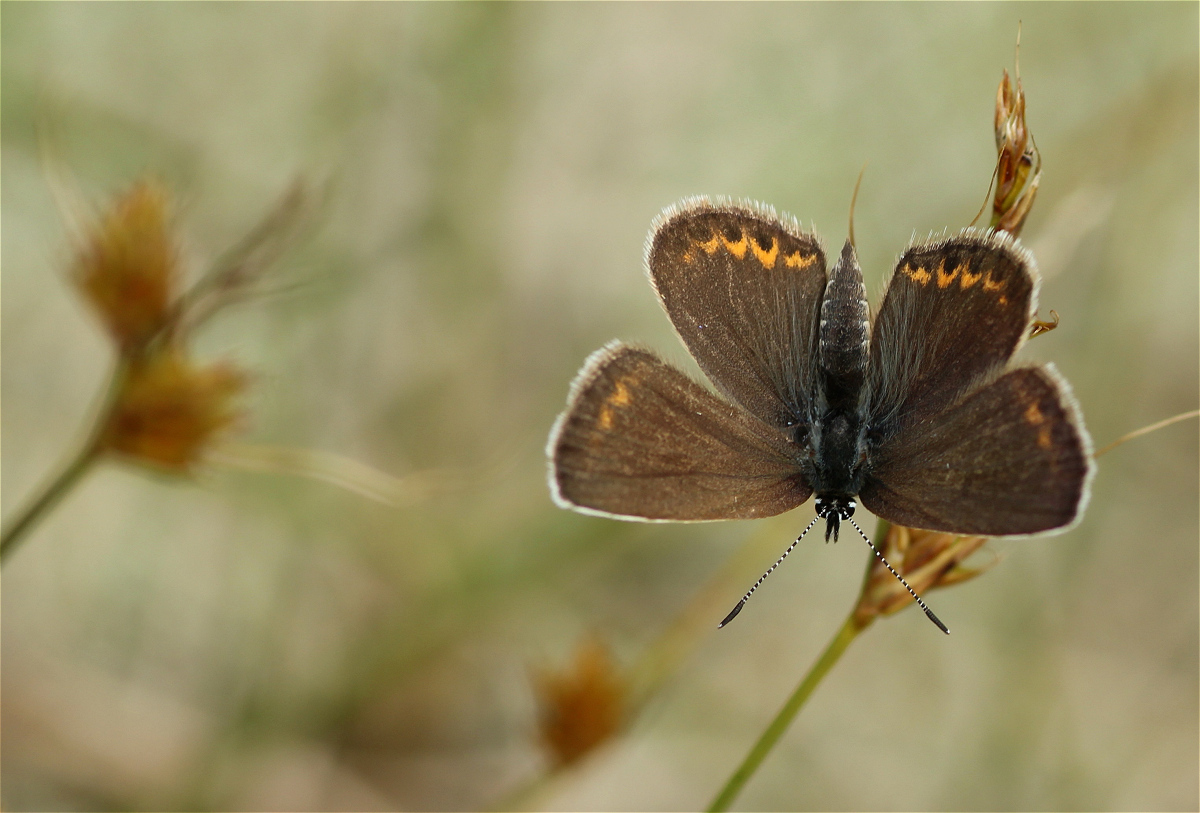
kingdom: Animalia
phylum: Arthropoda
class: Insecta
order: Lepidoptera
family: Lycaenidae
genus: Plebejus
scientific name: Plebejus argus
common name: Silver-studded blue
